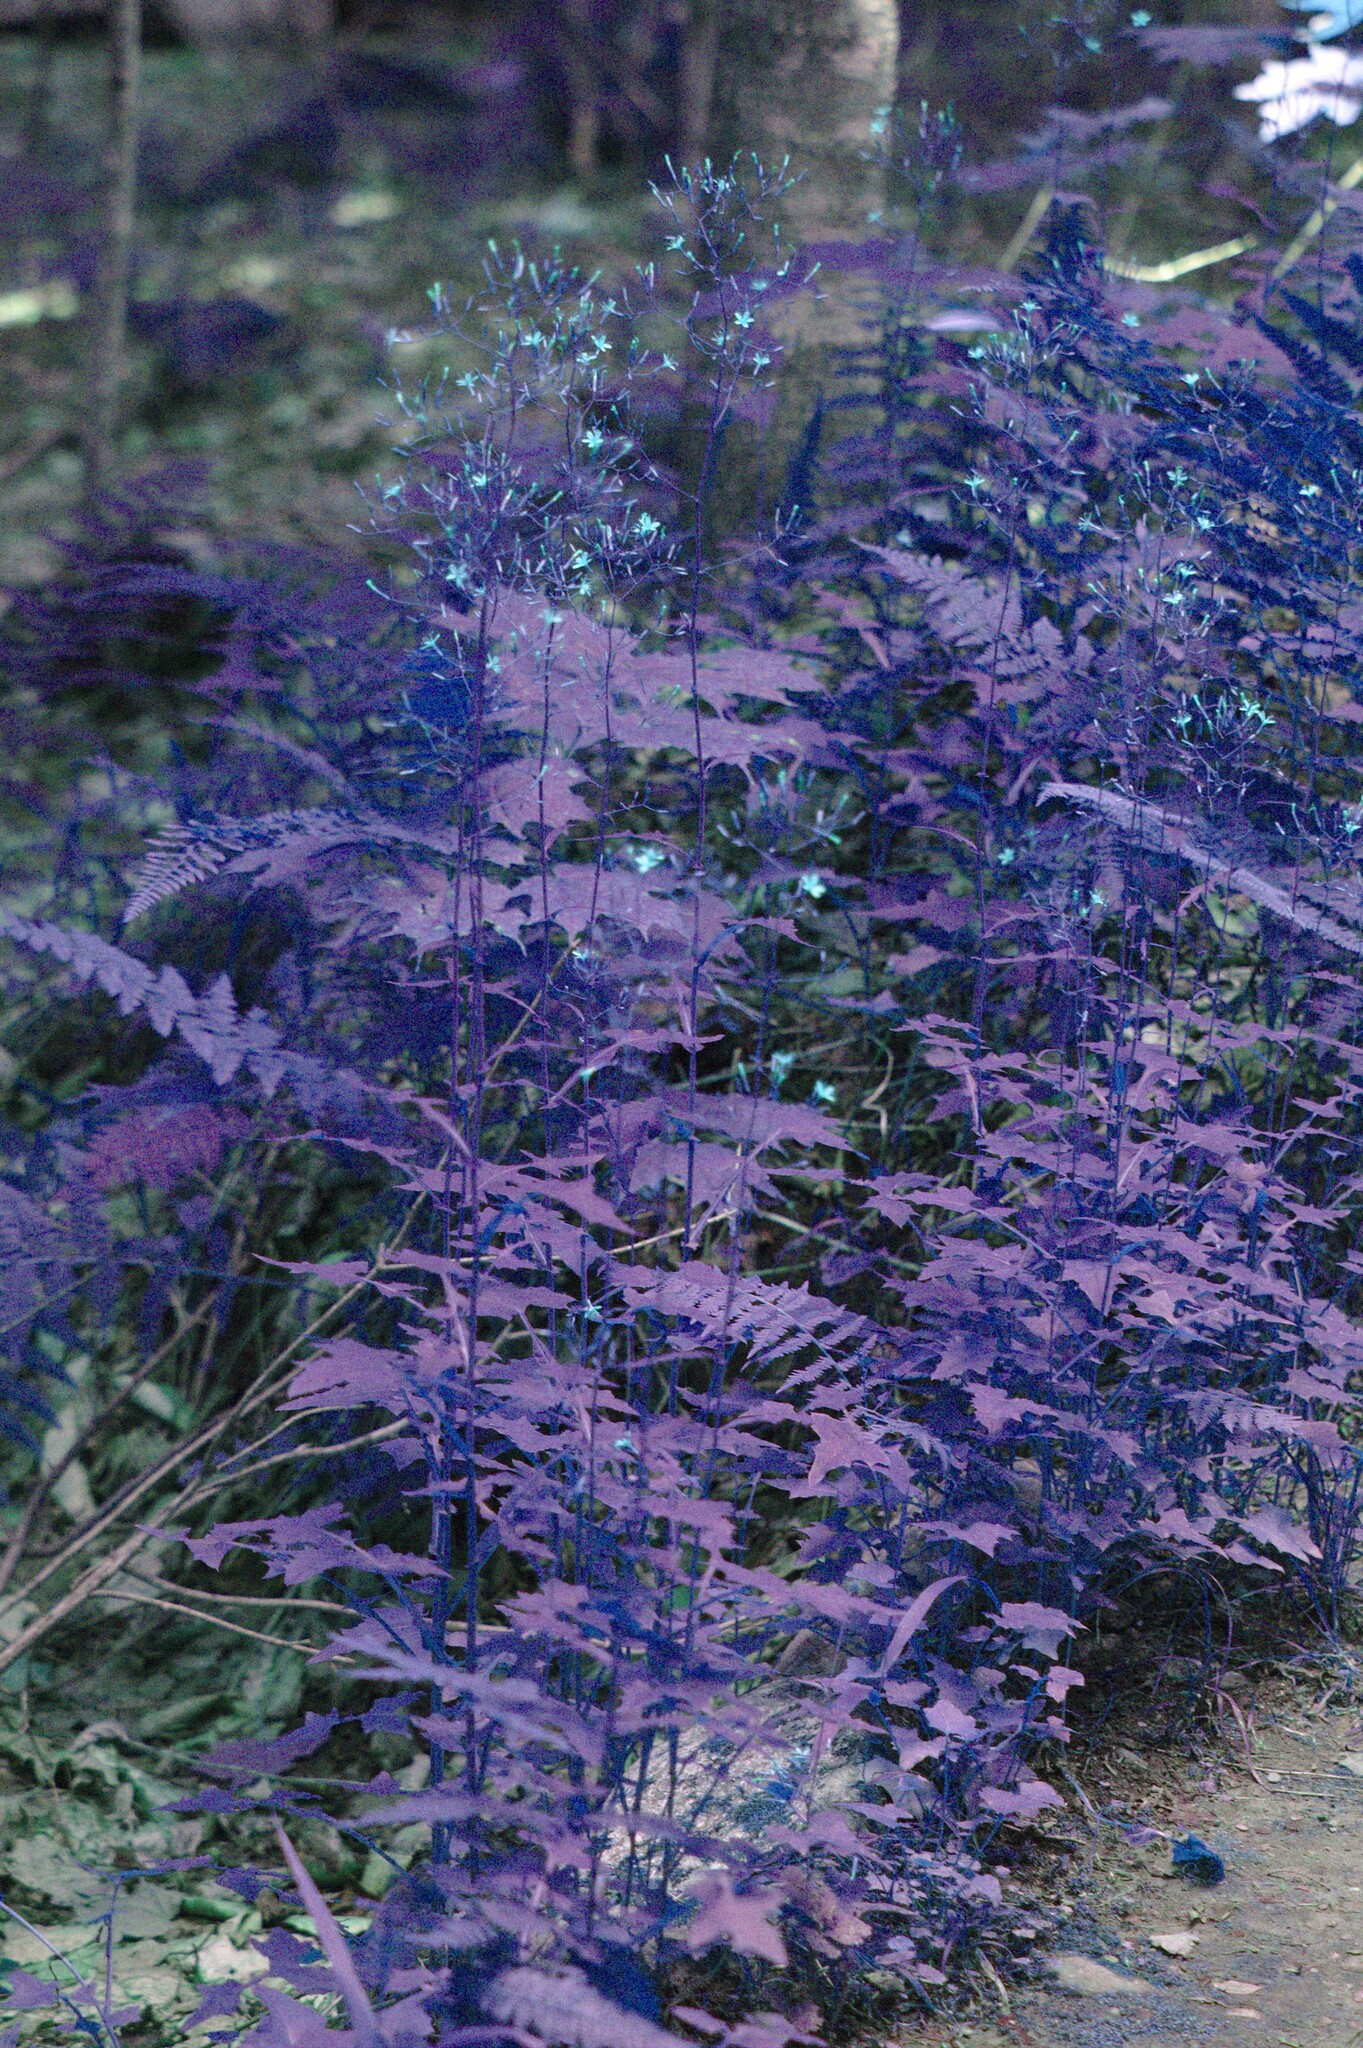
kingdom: Plantae
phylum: Tracheophyta
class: Magnoliopsida
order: Asterales
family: Asteraceae
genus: Mycelis
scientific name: Mycelis muralis
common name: Wall lettuce
